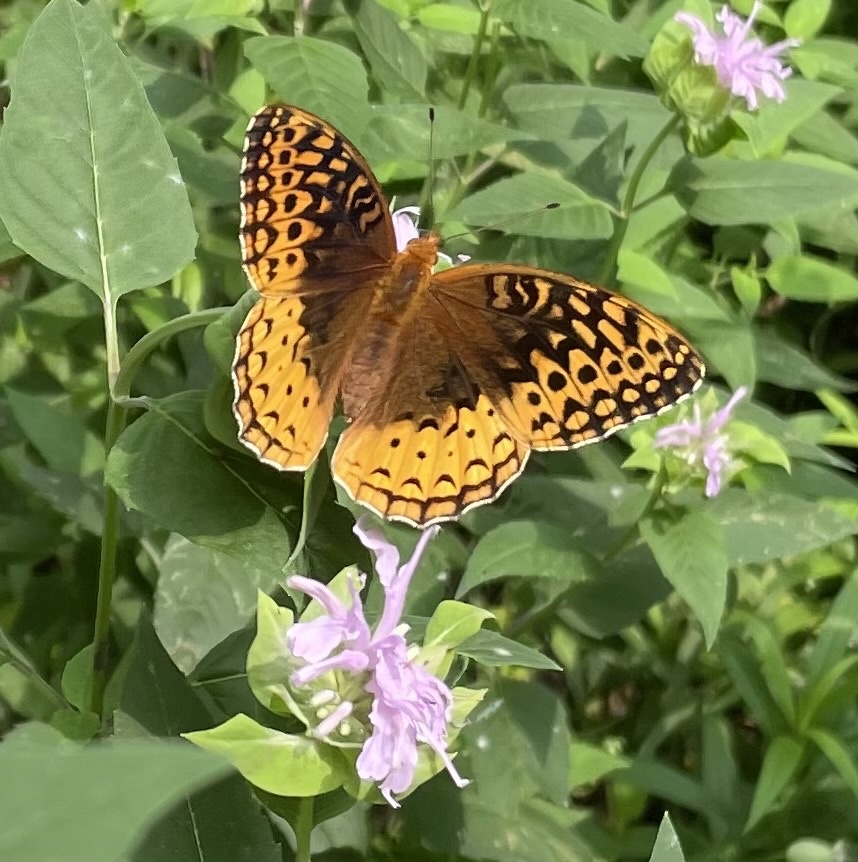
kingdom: Animalia
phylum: Arthropoda
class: Insecta
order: Lepidoptera
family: Nymphalidae
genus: Speyeria
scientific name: Speyeria cybele
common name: Great spangled fritillary
